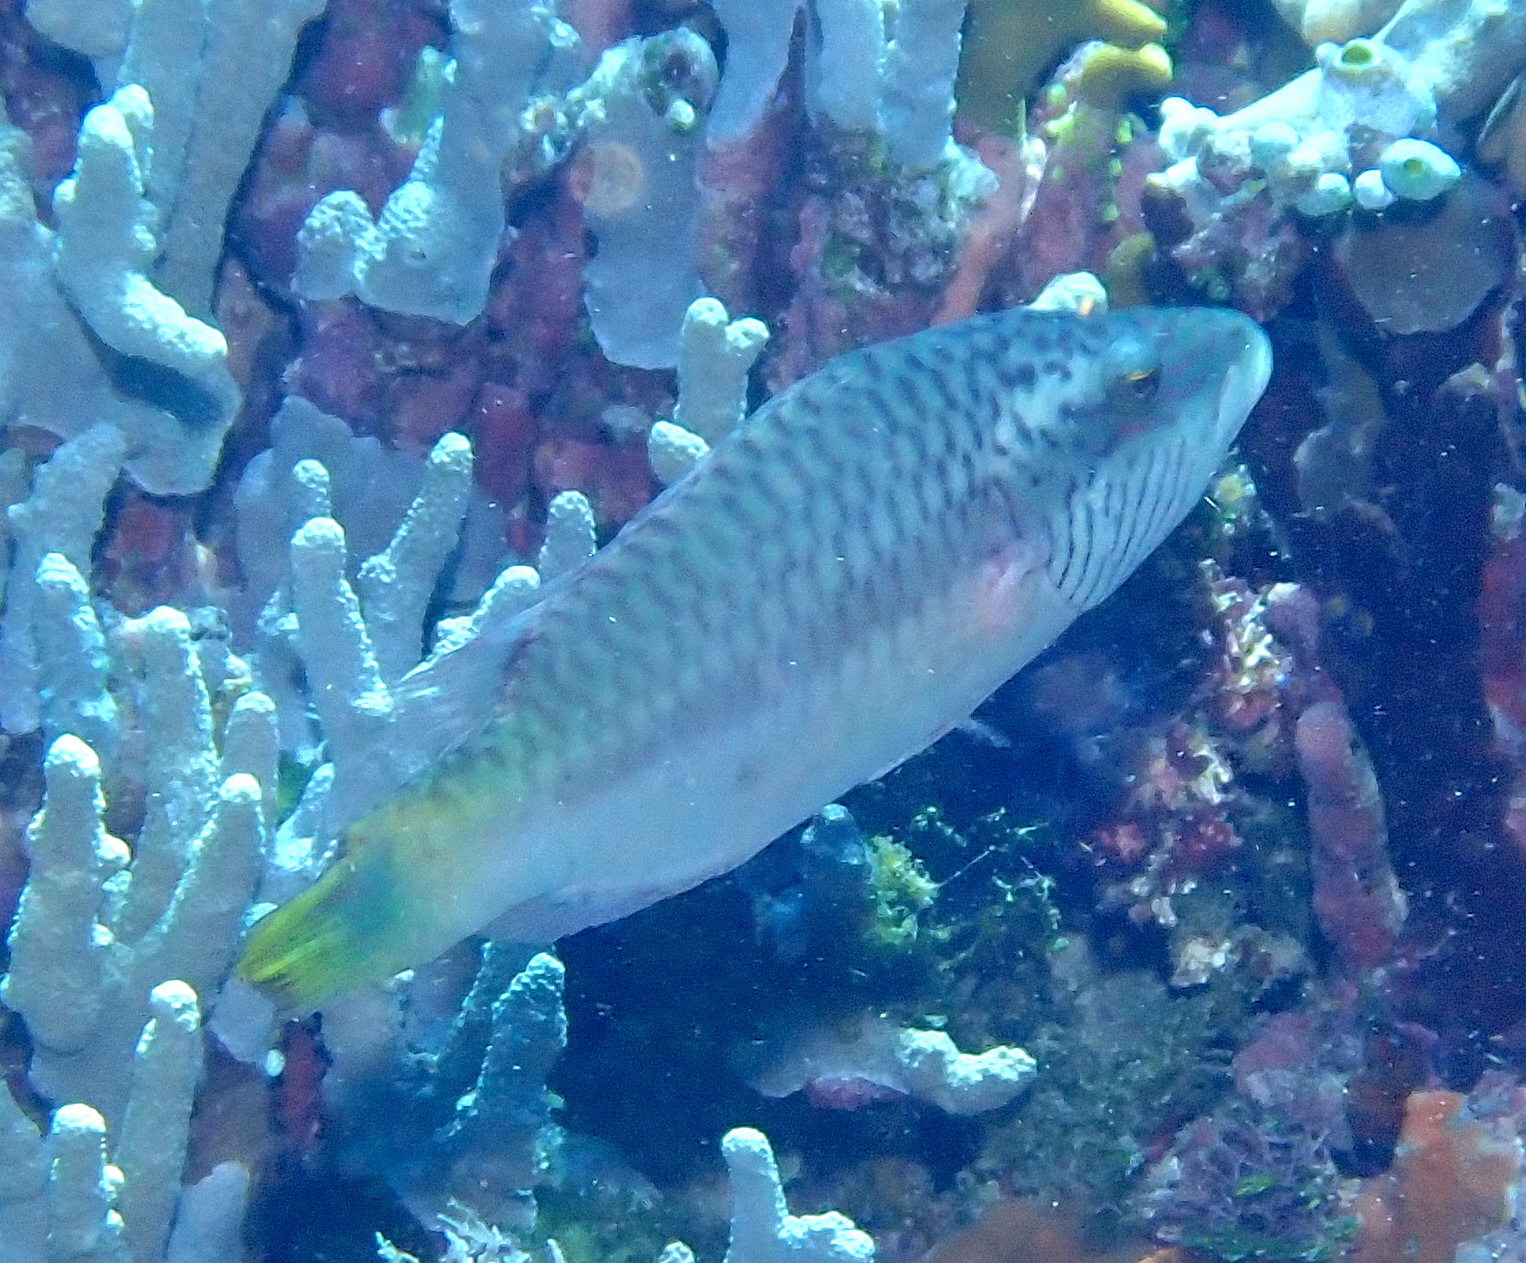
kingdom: Animalia
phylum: Chordata
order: Perciformes
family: Labridae
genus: Oxycheilinus
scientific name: Oxycheilinus digramma
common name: Bandcheek wrasse
